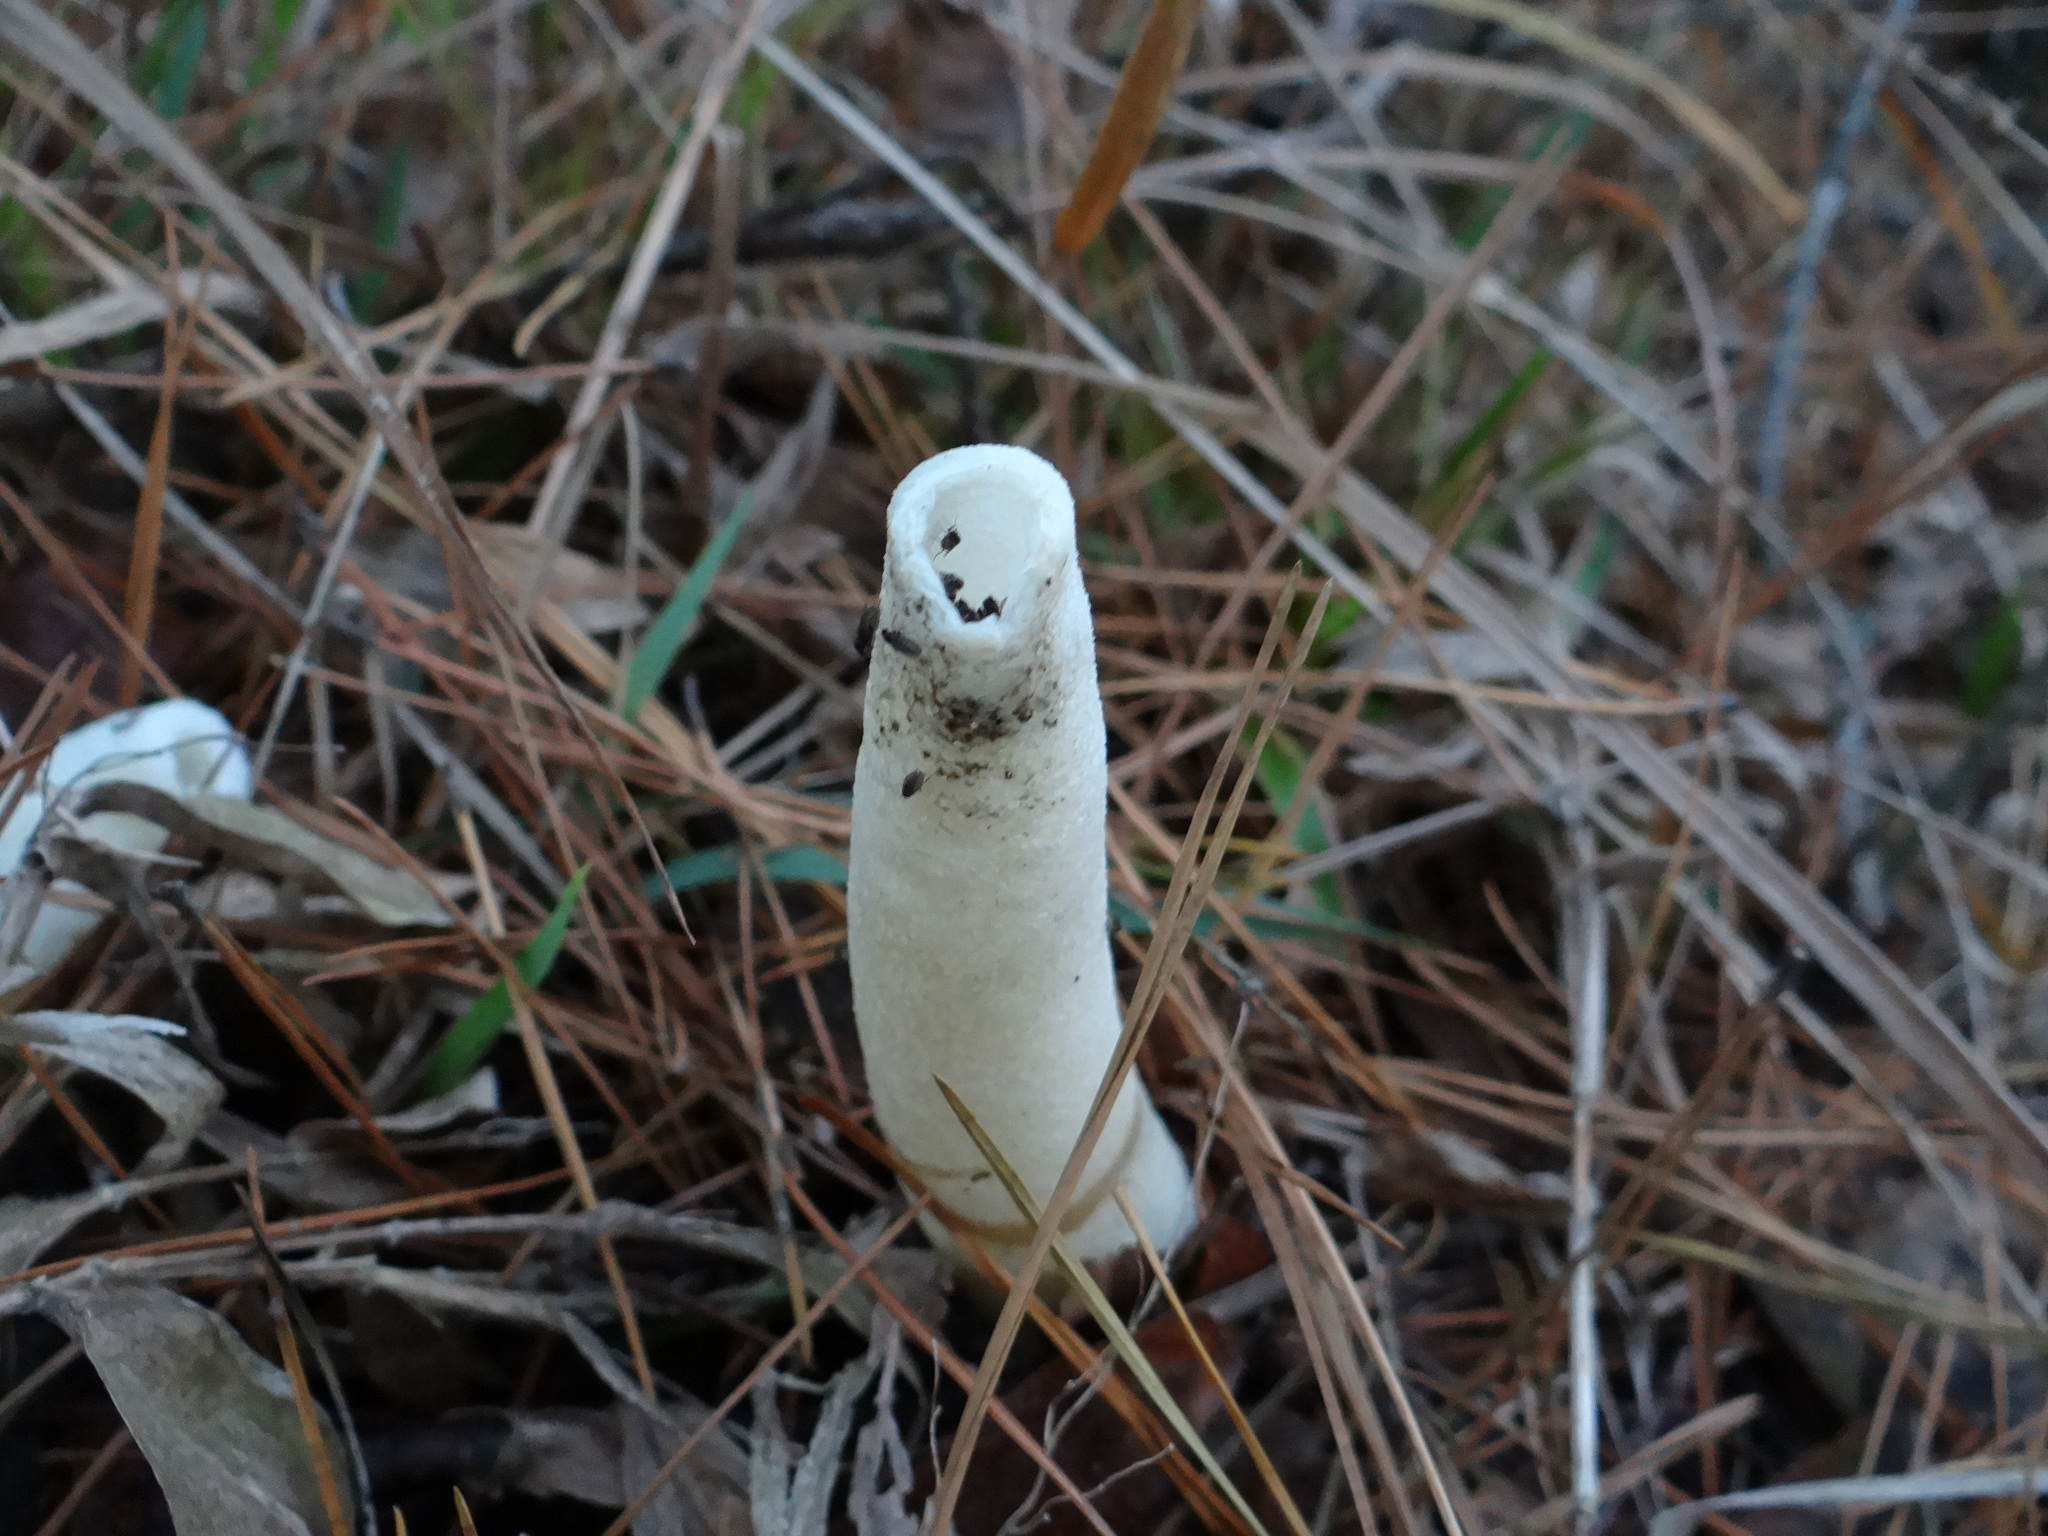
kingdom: Fungi
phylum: Basidiomycota
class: Agaricomycetes
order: Phallales
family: Phallaceae
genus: Phallus
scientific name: Phallus ravenelii
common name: Ravenel's stinkhorn
